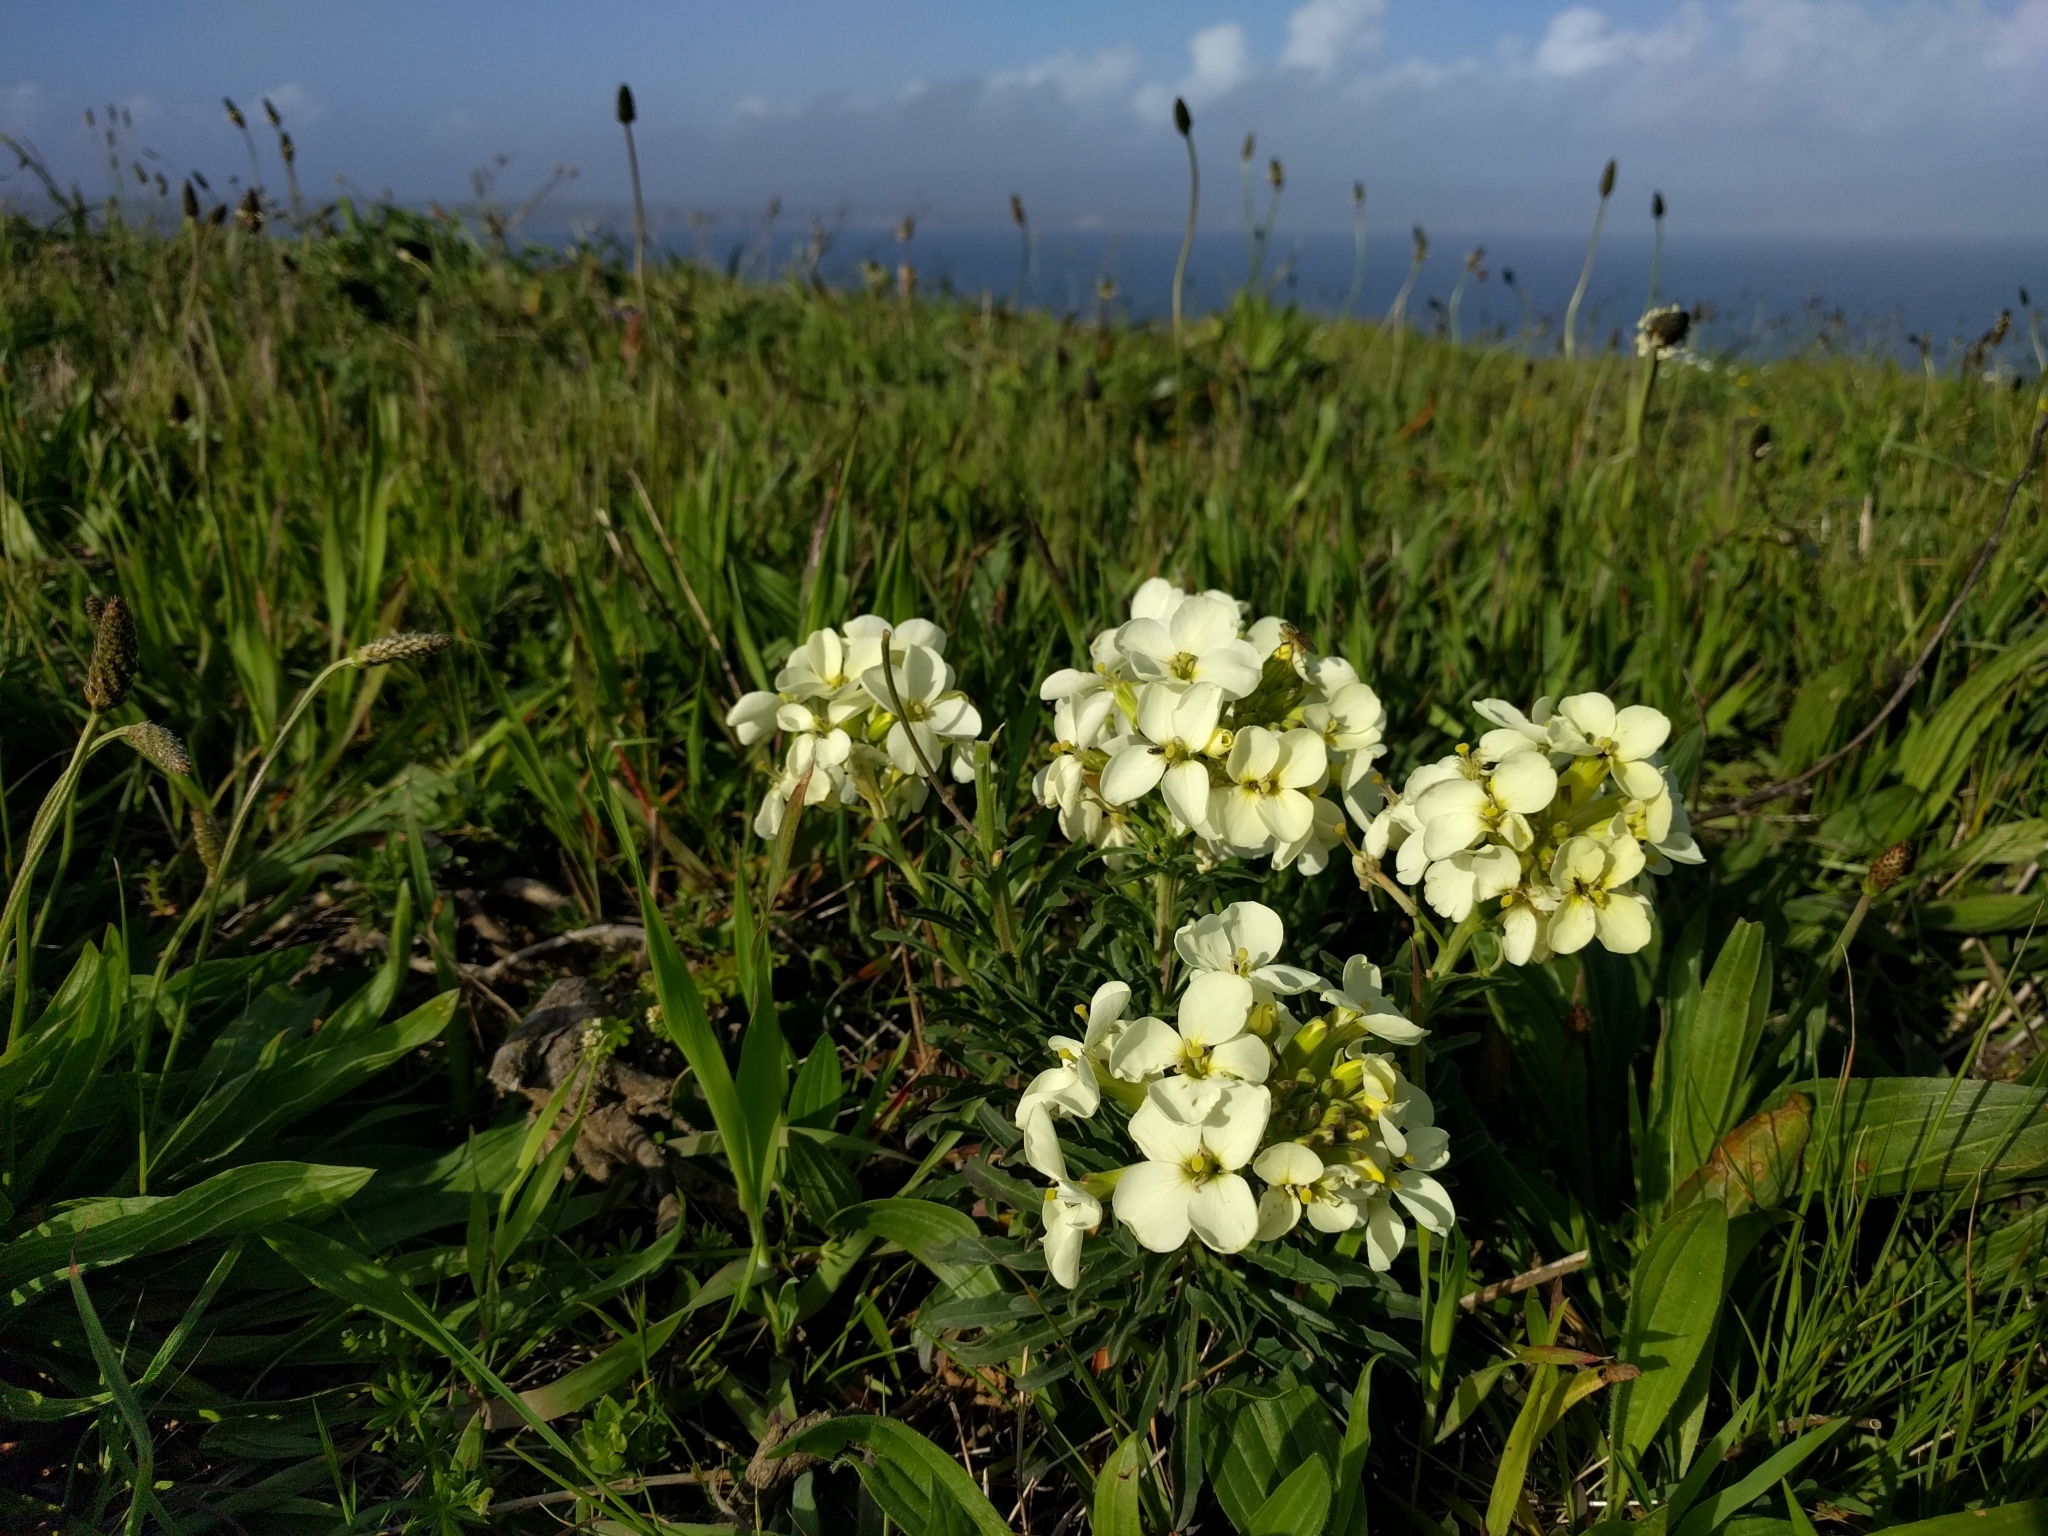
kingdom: Plantae
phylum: Tracheophyta
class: Magnoliopsida
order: Brassicales
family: Brassicaceae
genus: Erysimum
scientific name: Erysimum concinnum
